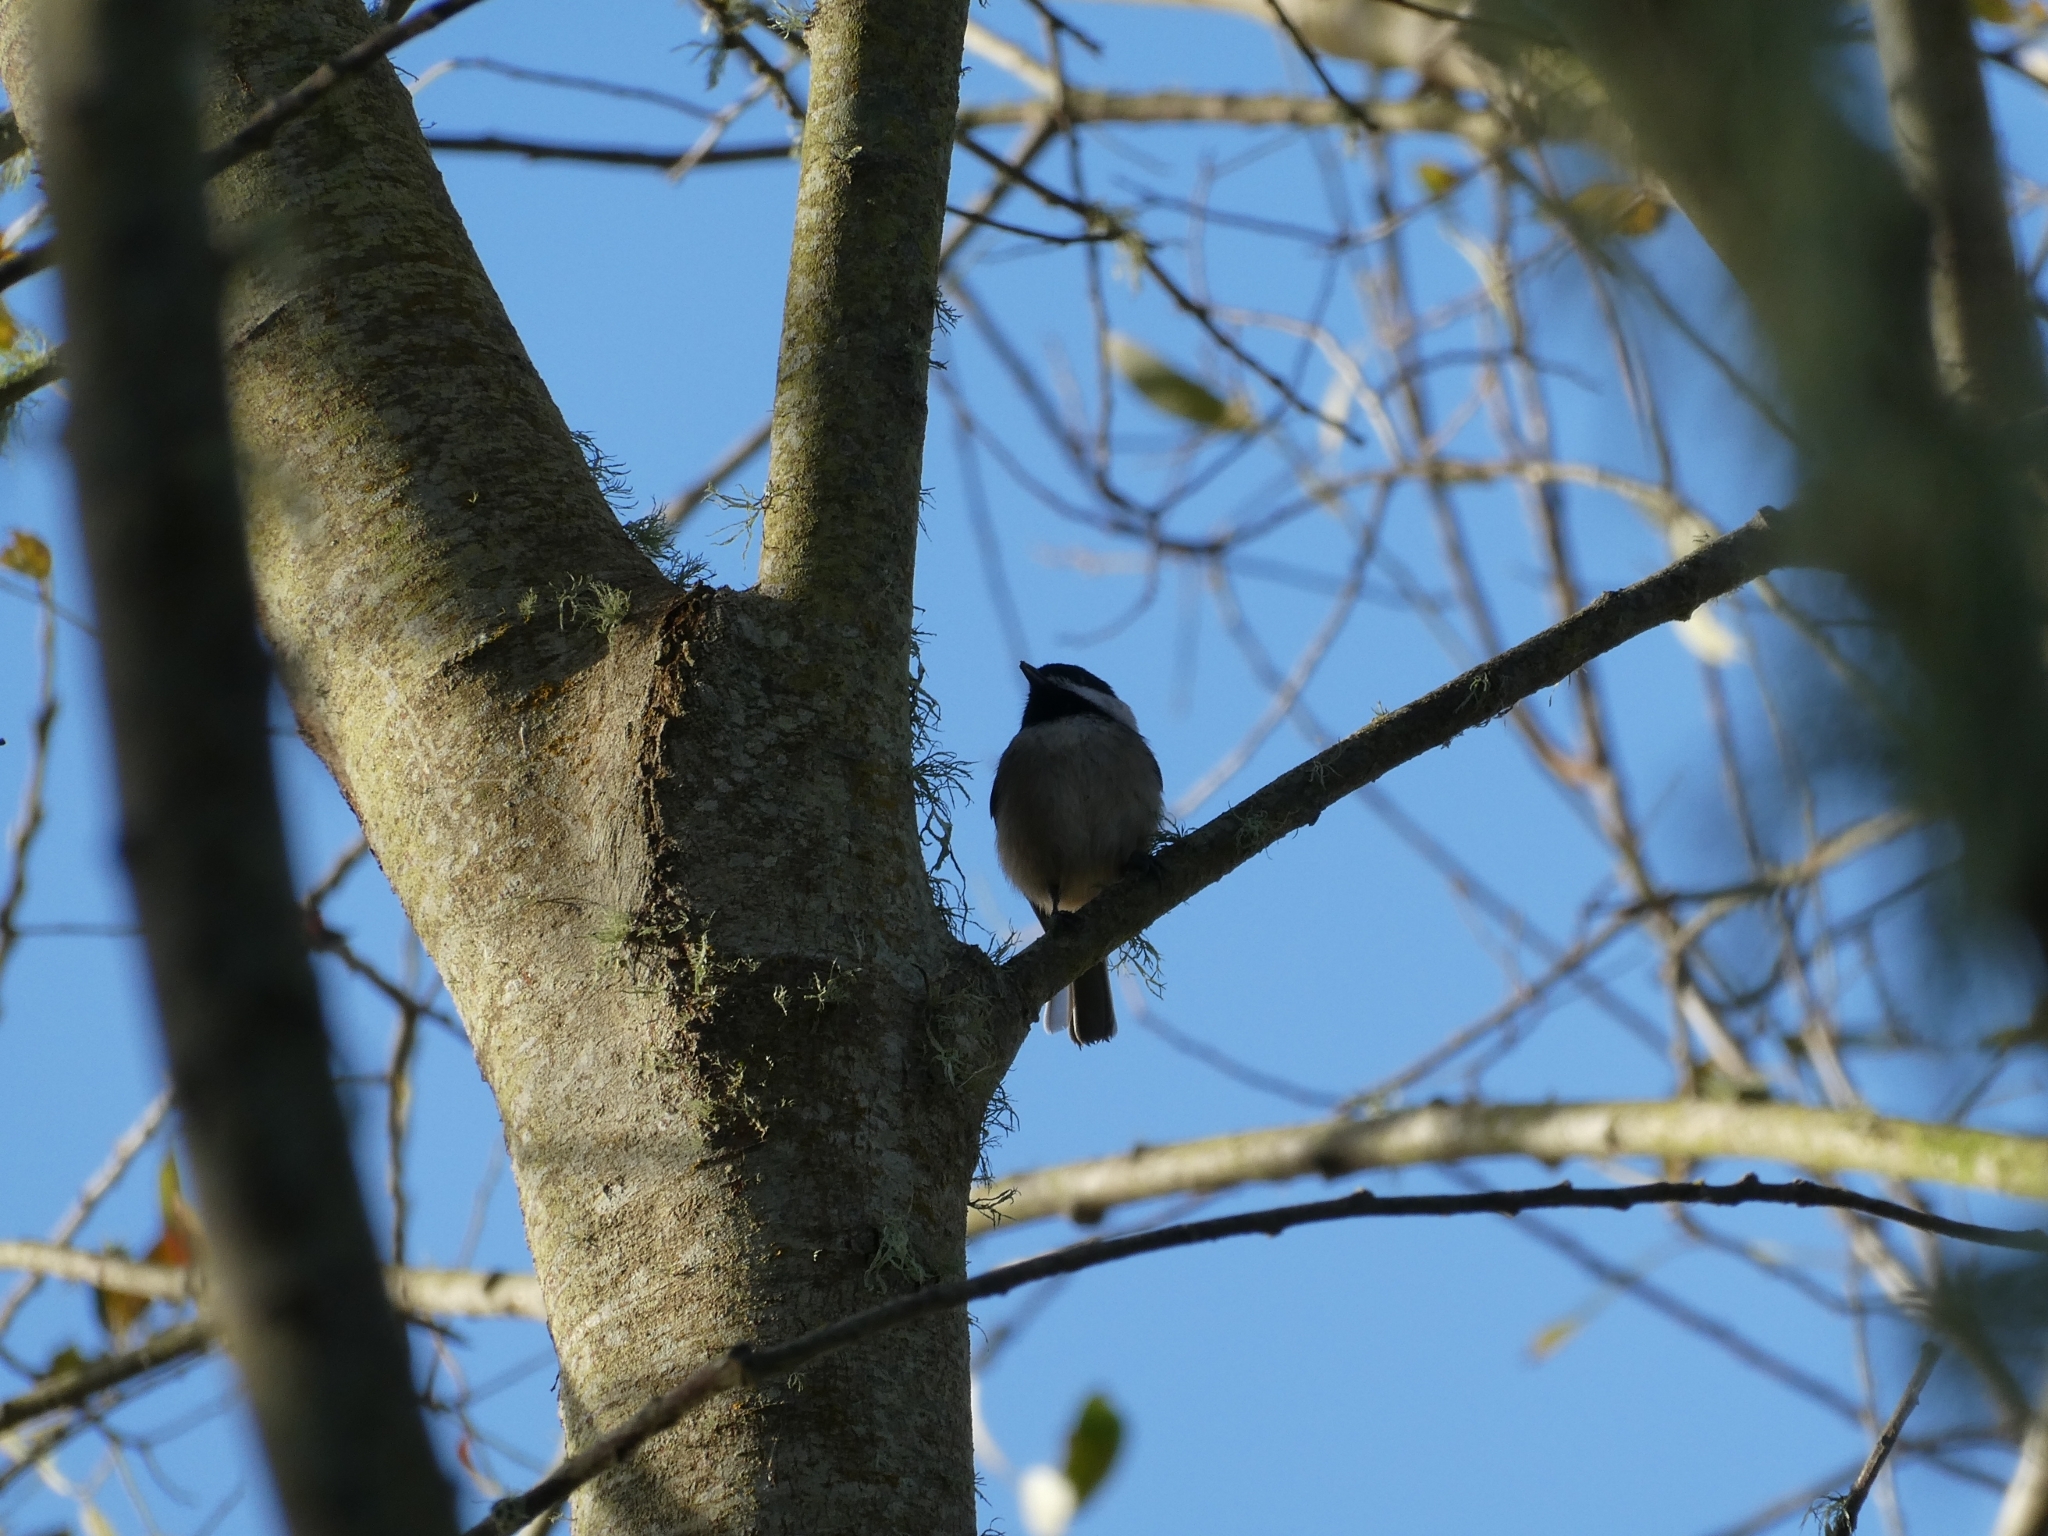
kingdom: Animalia
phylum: Chordata
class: Aves
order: Passeriformes
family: Paridae
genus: Poecile
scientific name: Poecile atricapillus
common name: Black-capped chickadee
